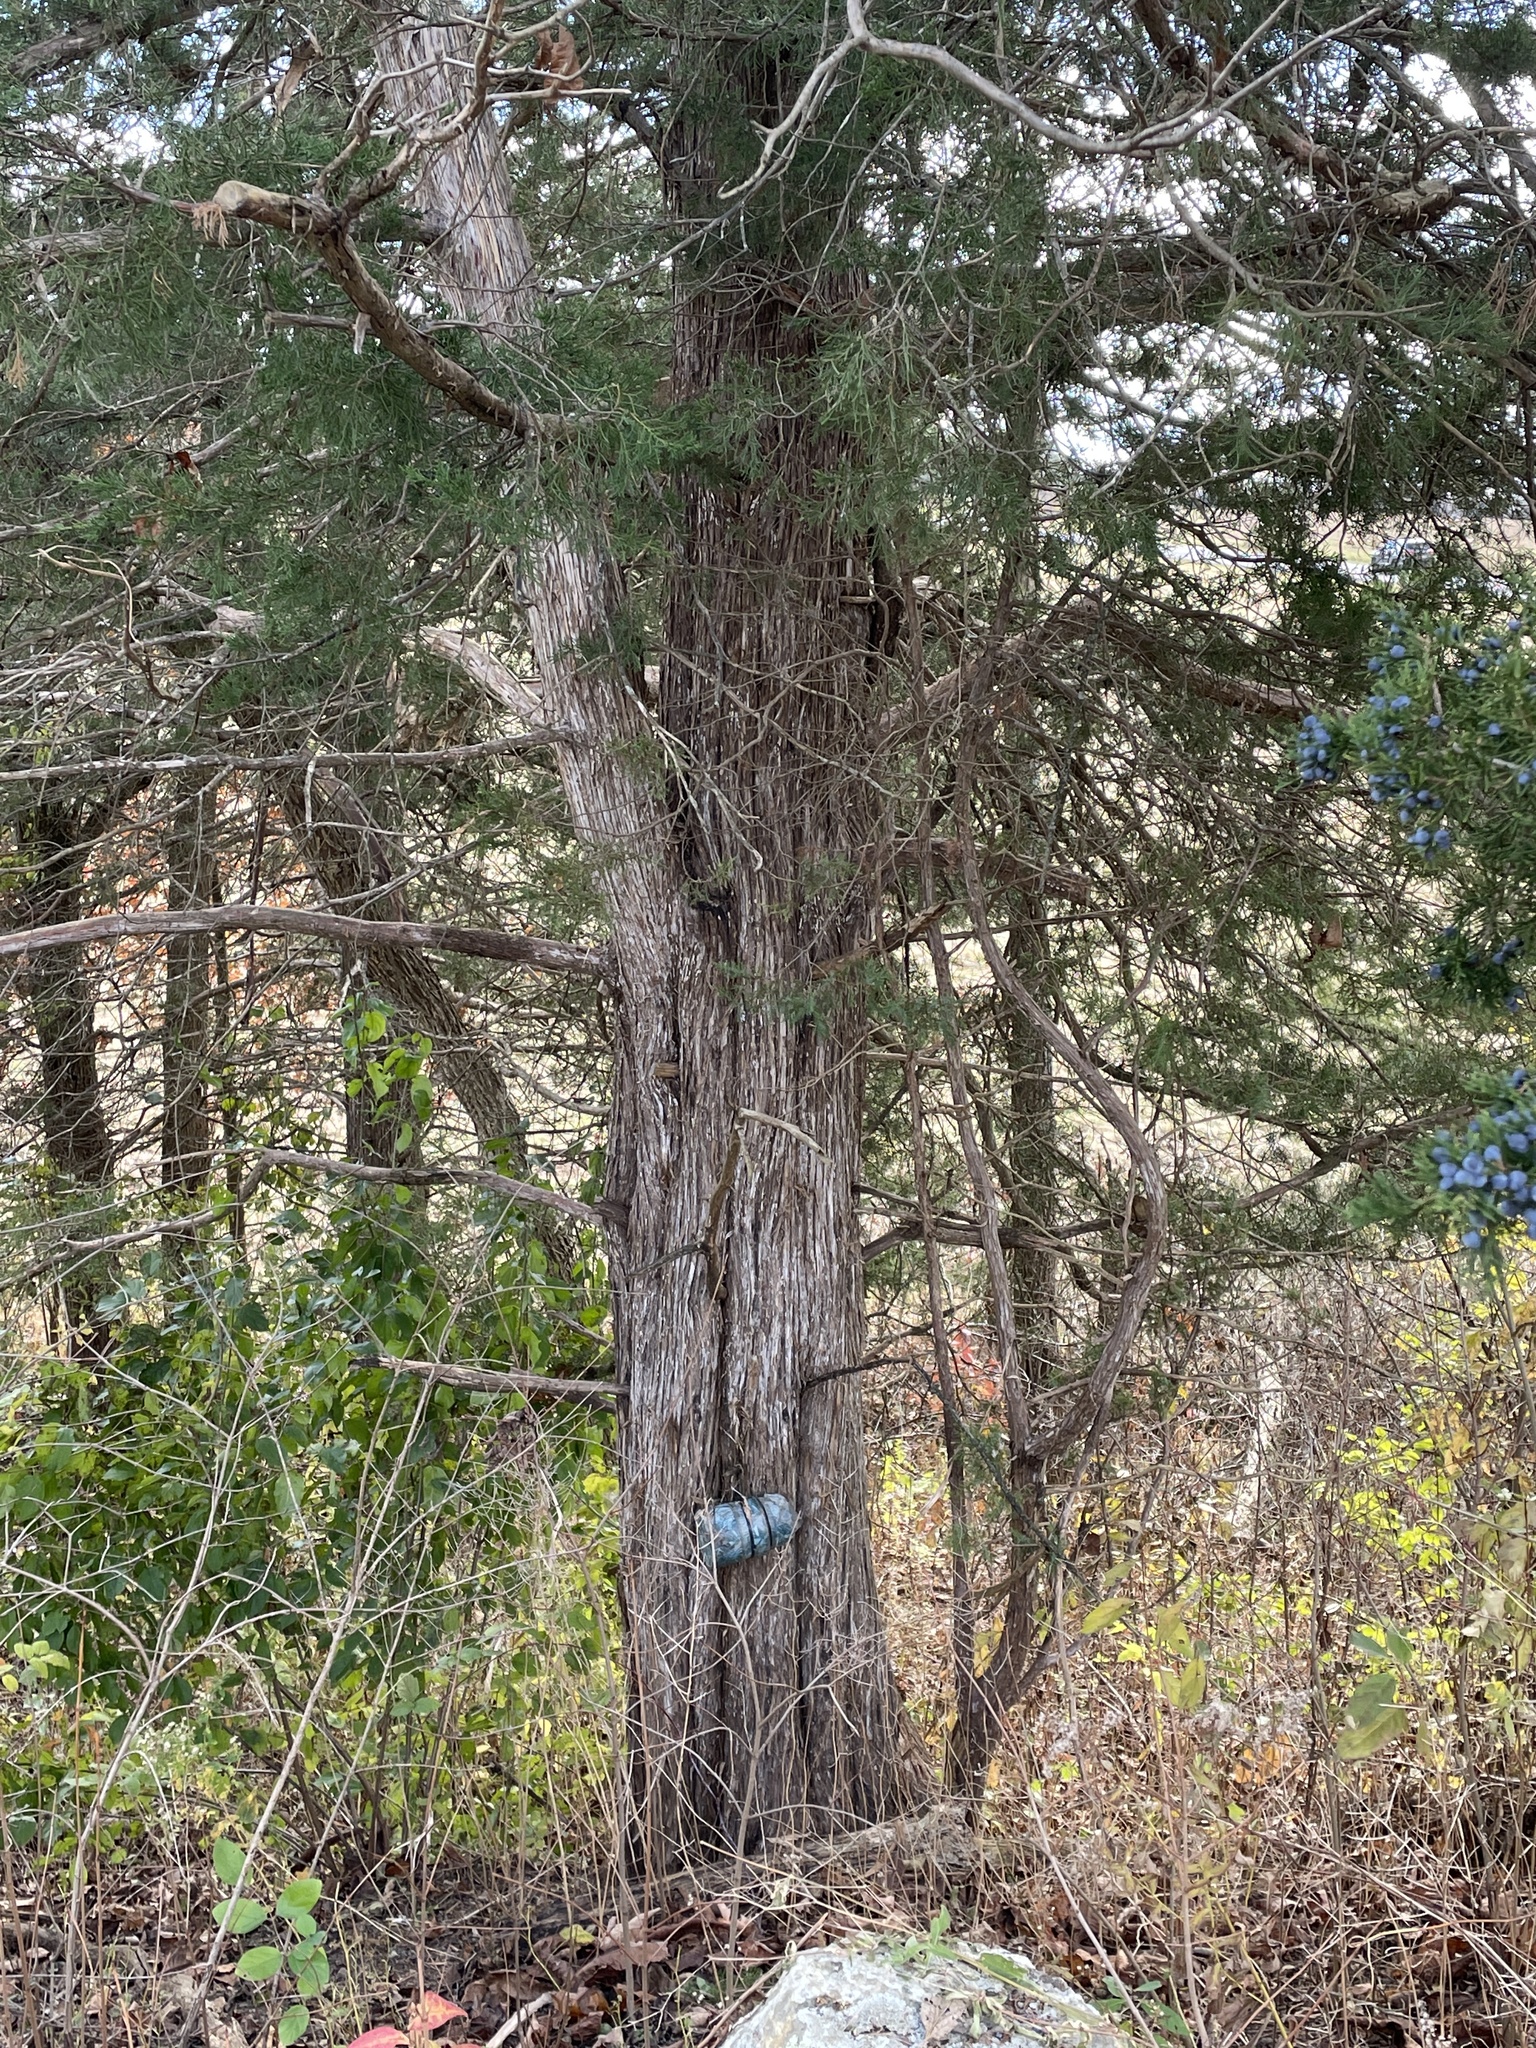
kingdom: Plantae
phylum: Tracheophyta
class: Pinopsida
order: Pinales
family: Cupressaceae
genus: Juniperus
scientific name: Juniperus virginiana
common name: Red juniper
